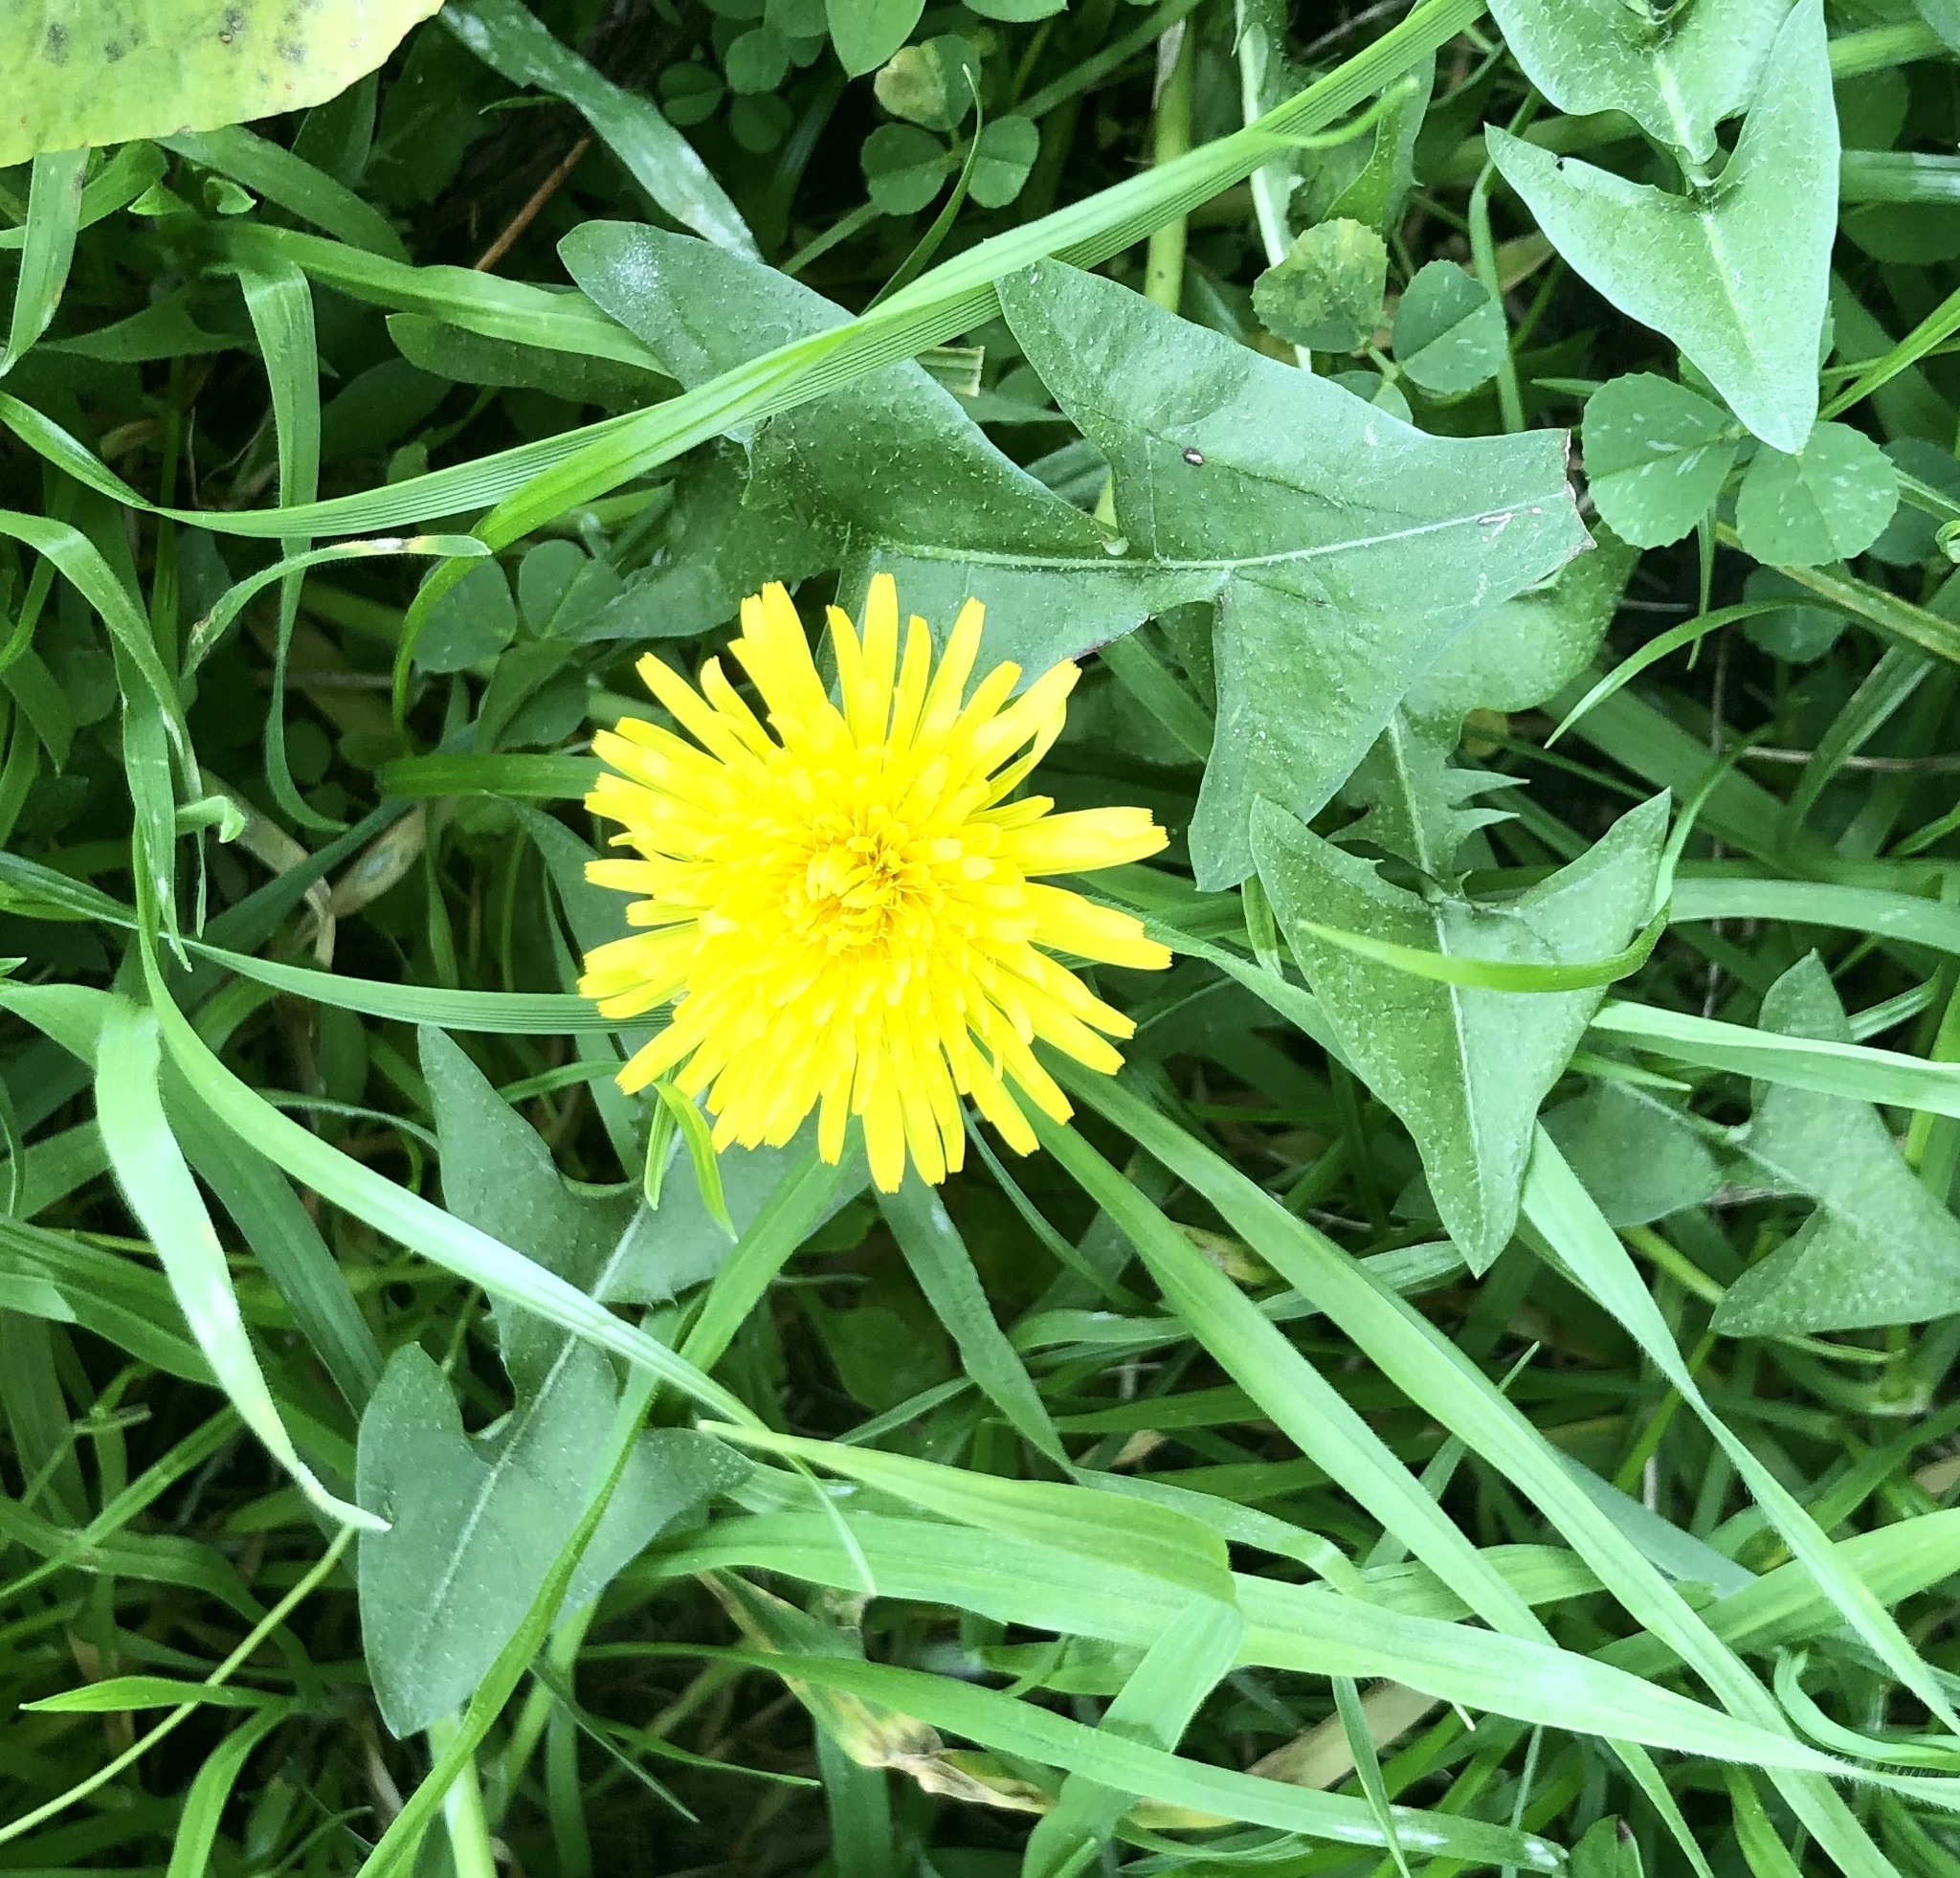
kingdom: Plantae
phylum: Tracheophyta
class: Magnoliopsida
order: Asterales
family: Asteraceae
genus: Taraxacum
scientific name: Taraxacum officinale
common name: Common dandelion
